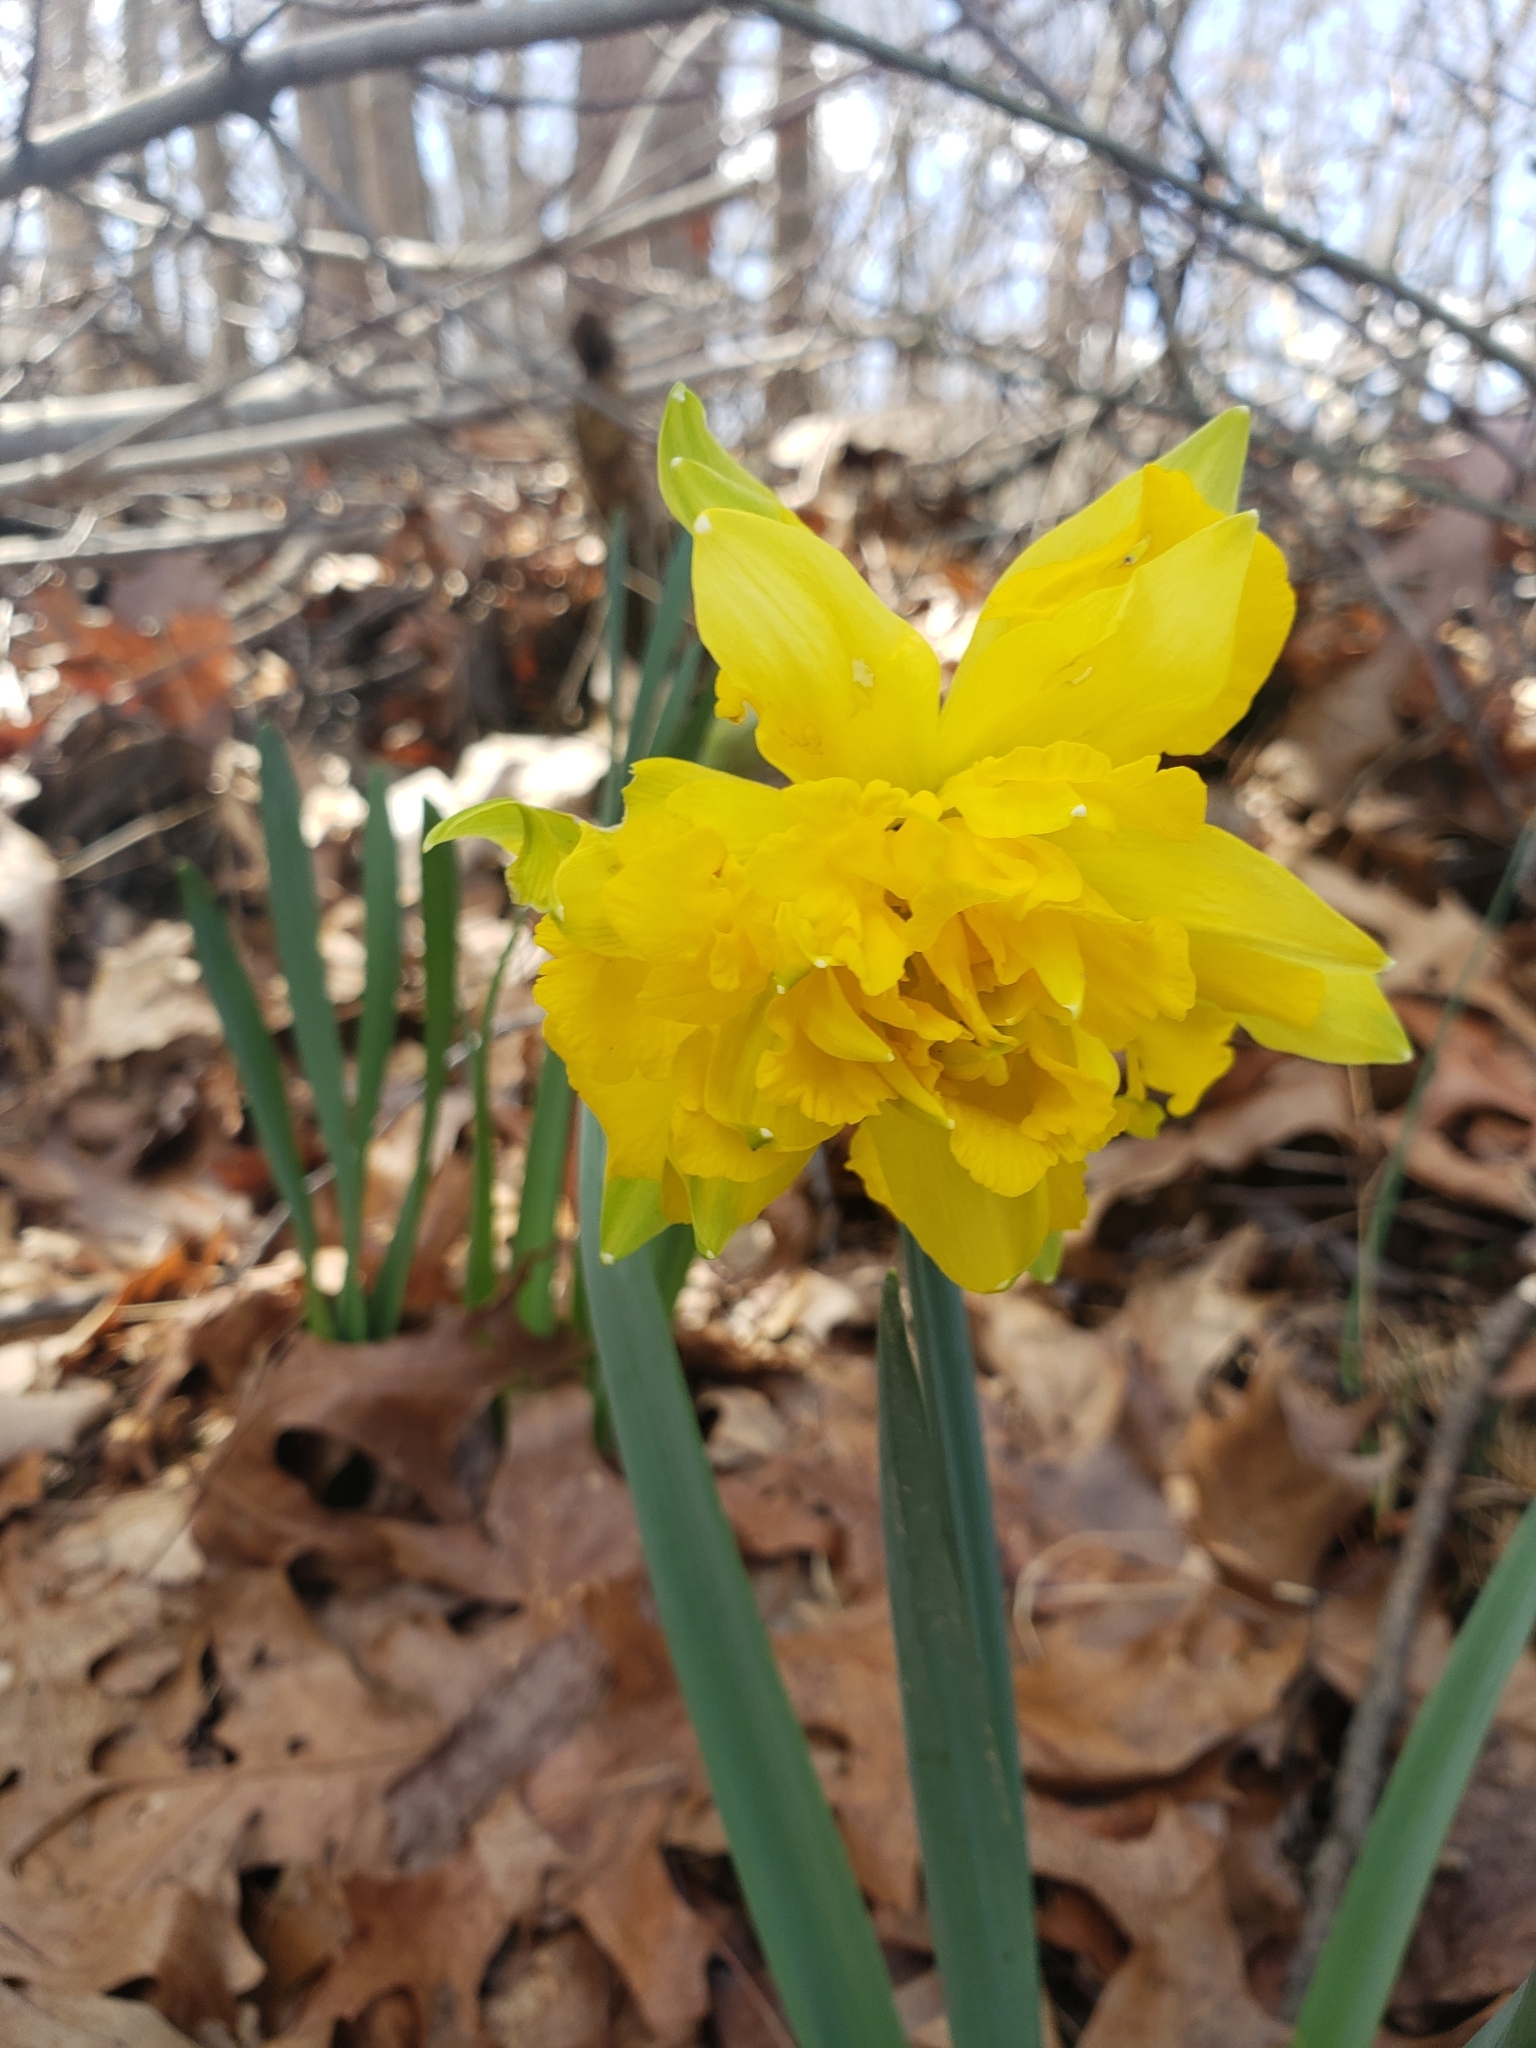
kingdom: Plantae
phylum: Tracheophyta
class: Liliopsida
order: Asparagales
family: Amaryllidaceae
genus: Narcissus
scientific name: Narcissus
